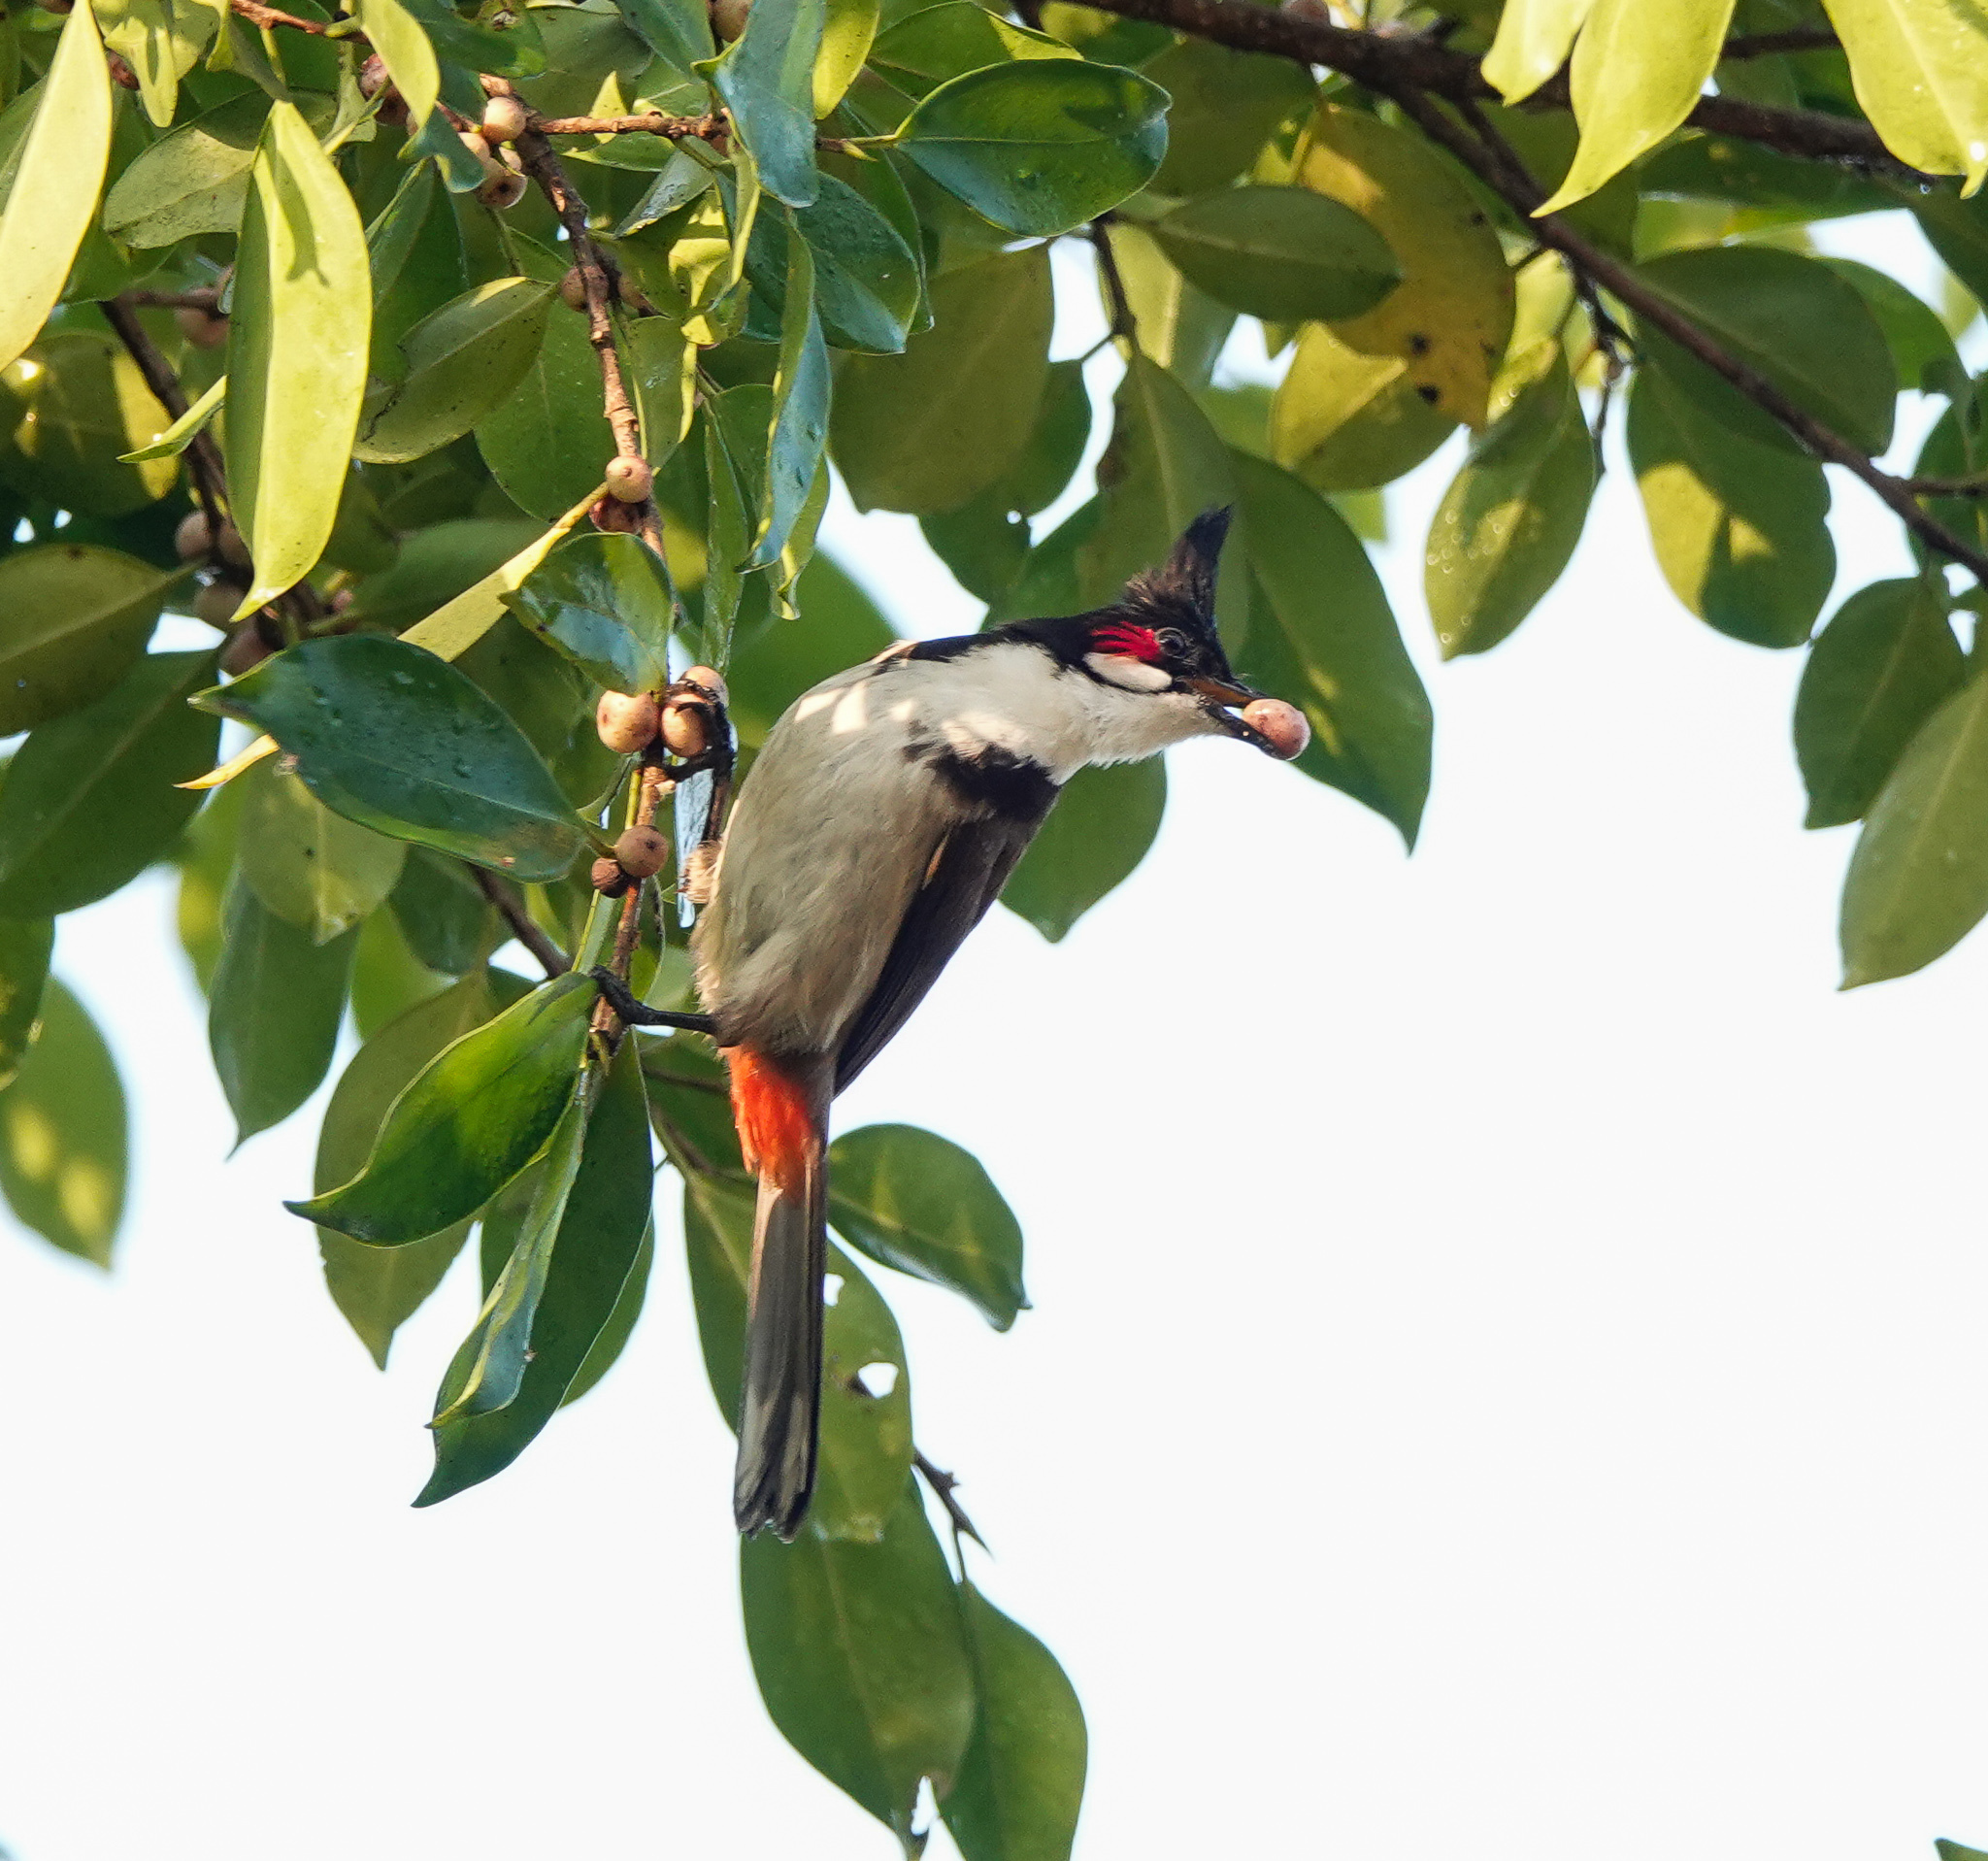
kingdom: Animalia
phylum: Chordata
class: Aves
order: Passeriformes
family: Pycnonotidae
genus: Pycnonotus
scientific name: Pycnonotus jocosus
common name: Red-whiskered bulbul
